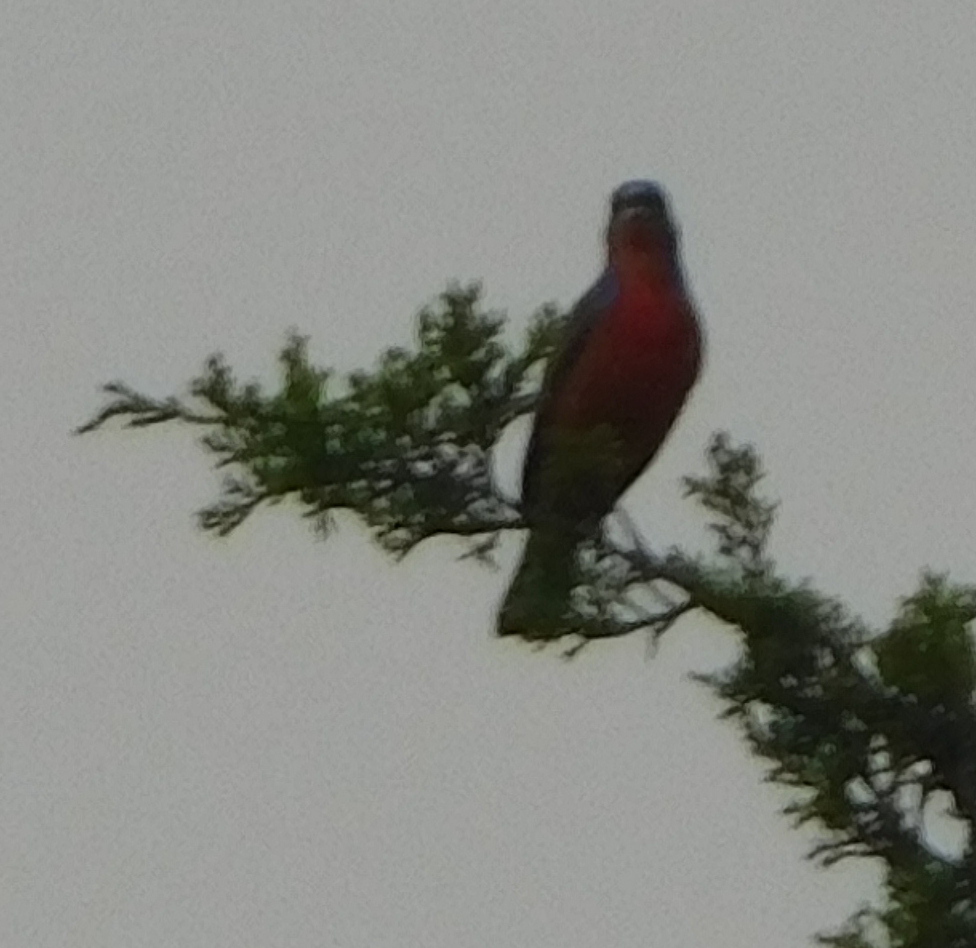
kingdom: Animalia
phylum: Chordata
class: Aves
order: Passeriformes
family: Cardinalidae
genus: Passerina
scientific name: Passerina ciris
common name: Painted bunting
